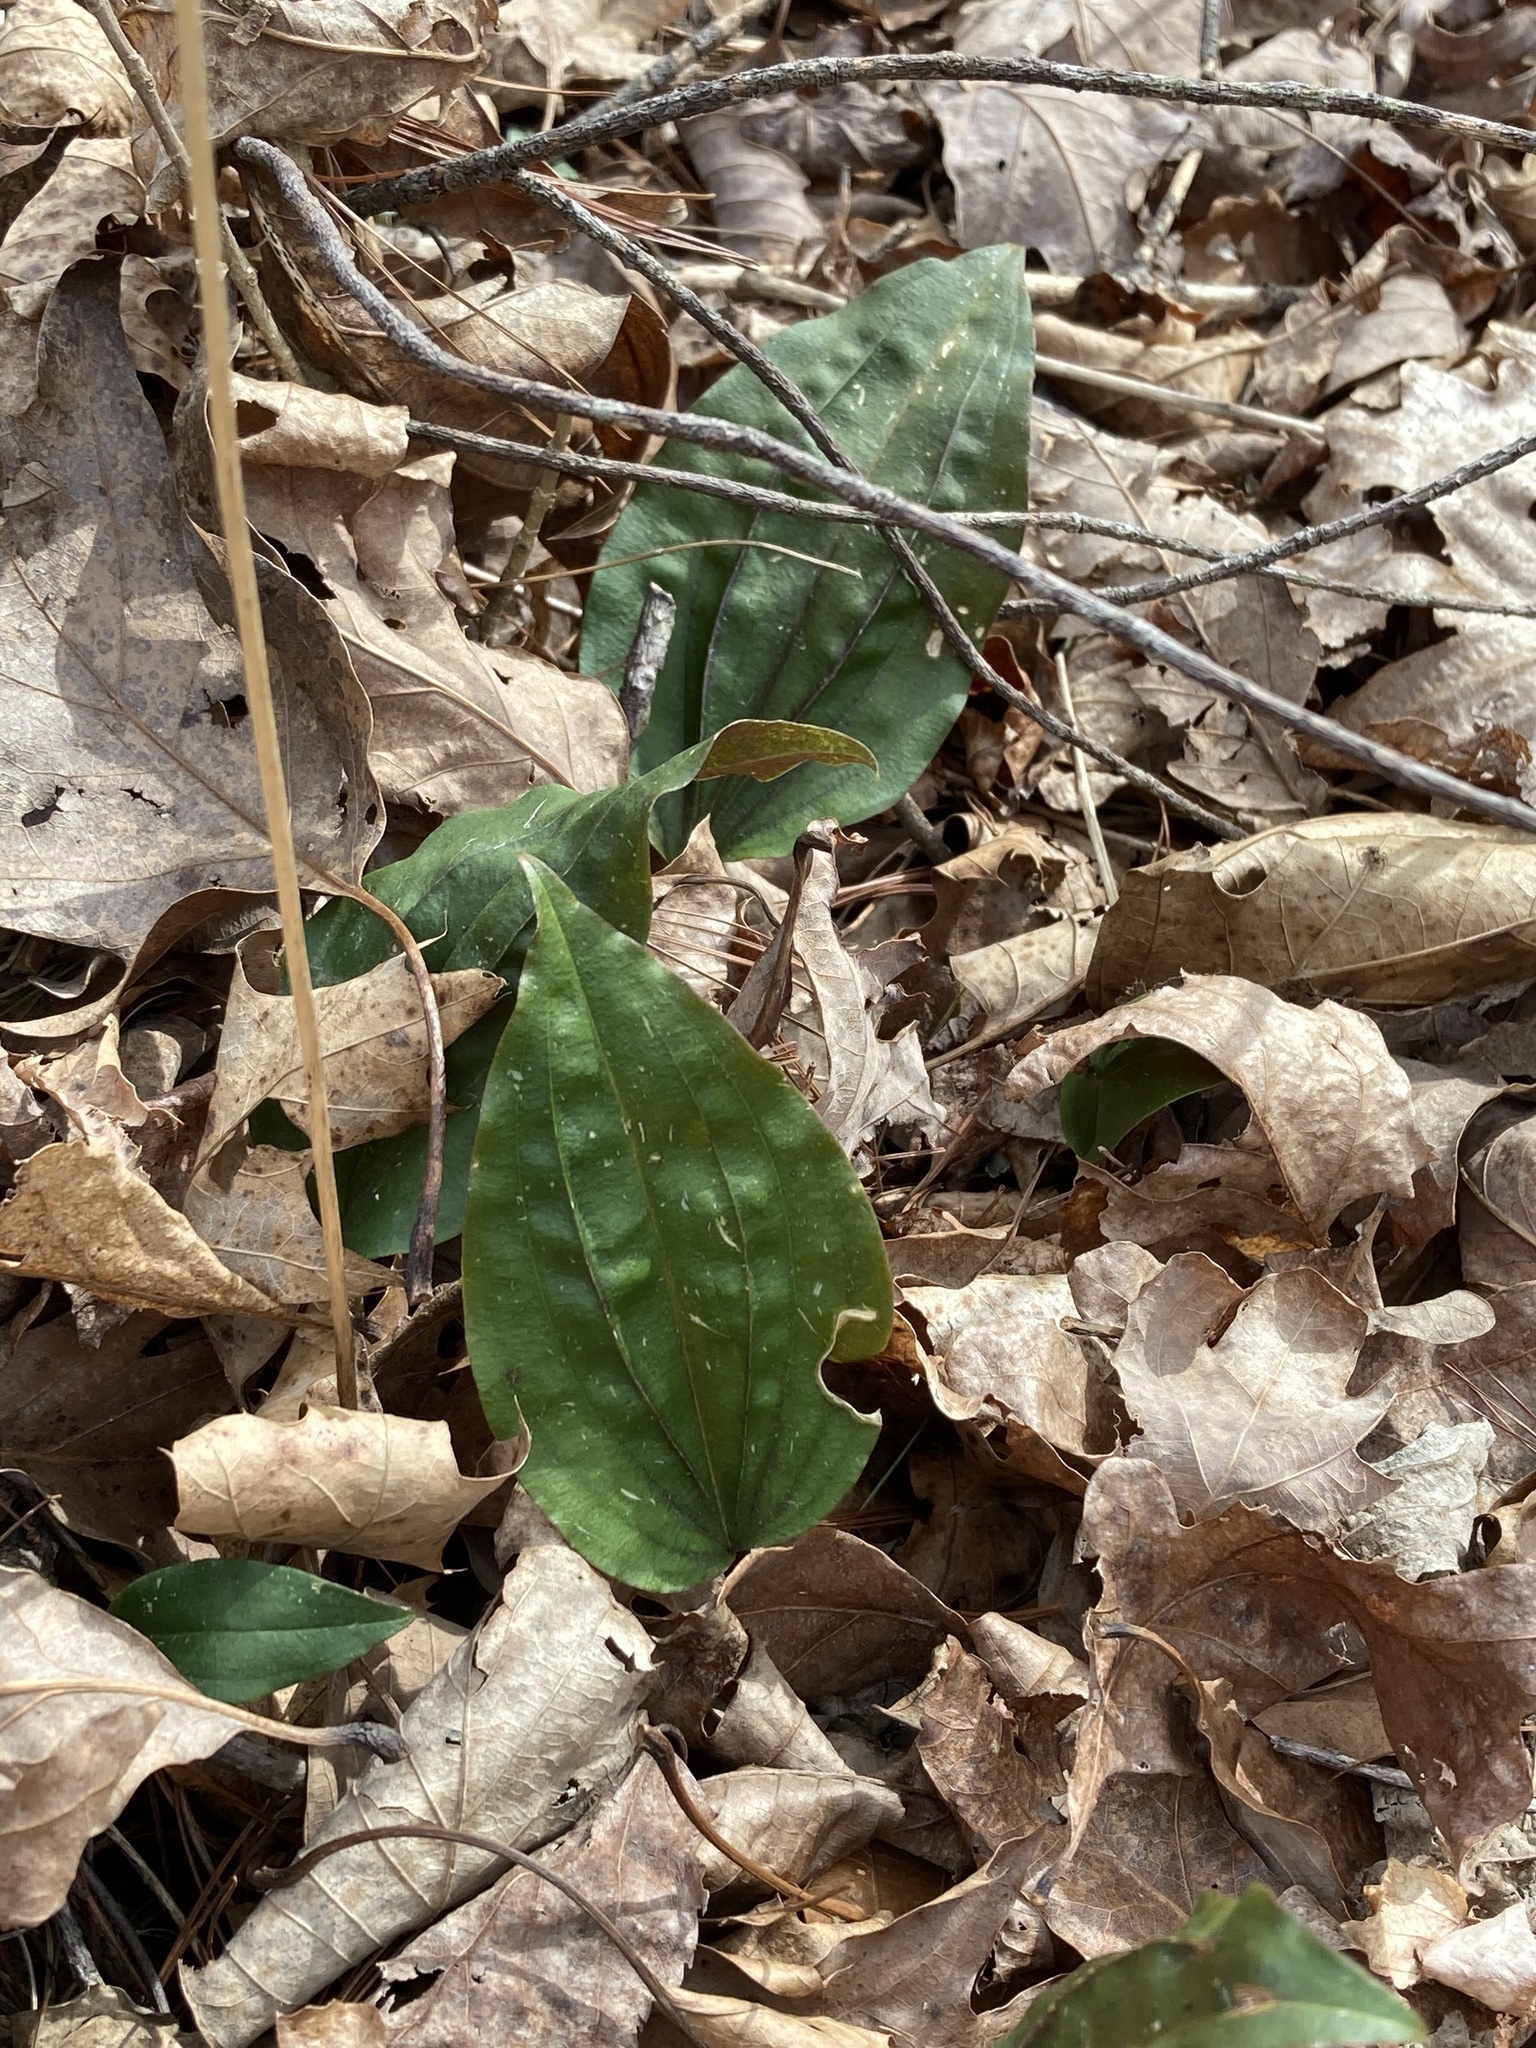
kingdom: Plantae
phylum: Tracheophyta
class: Liliopsida
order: Asparagales
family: Orchidaceae
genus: Tipularia
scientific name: Tipularia discolor
